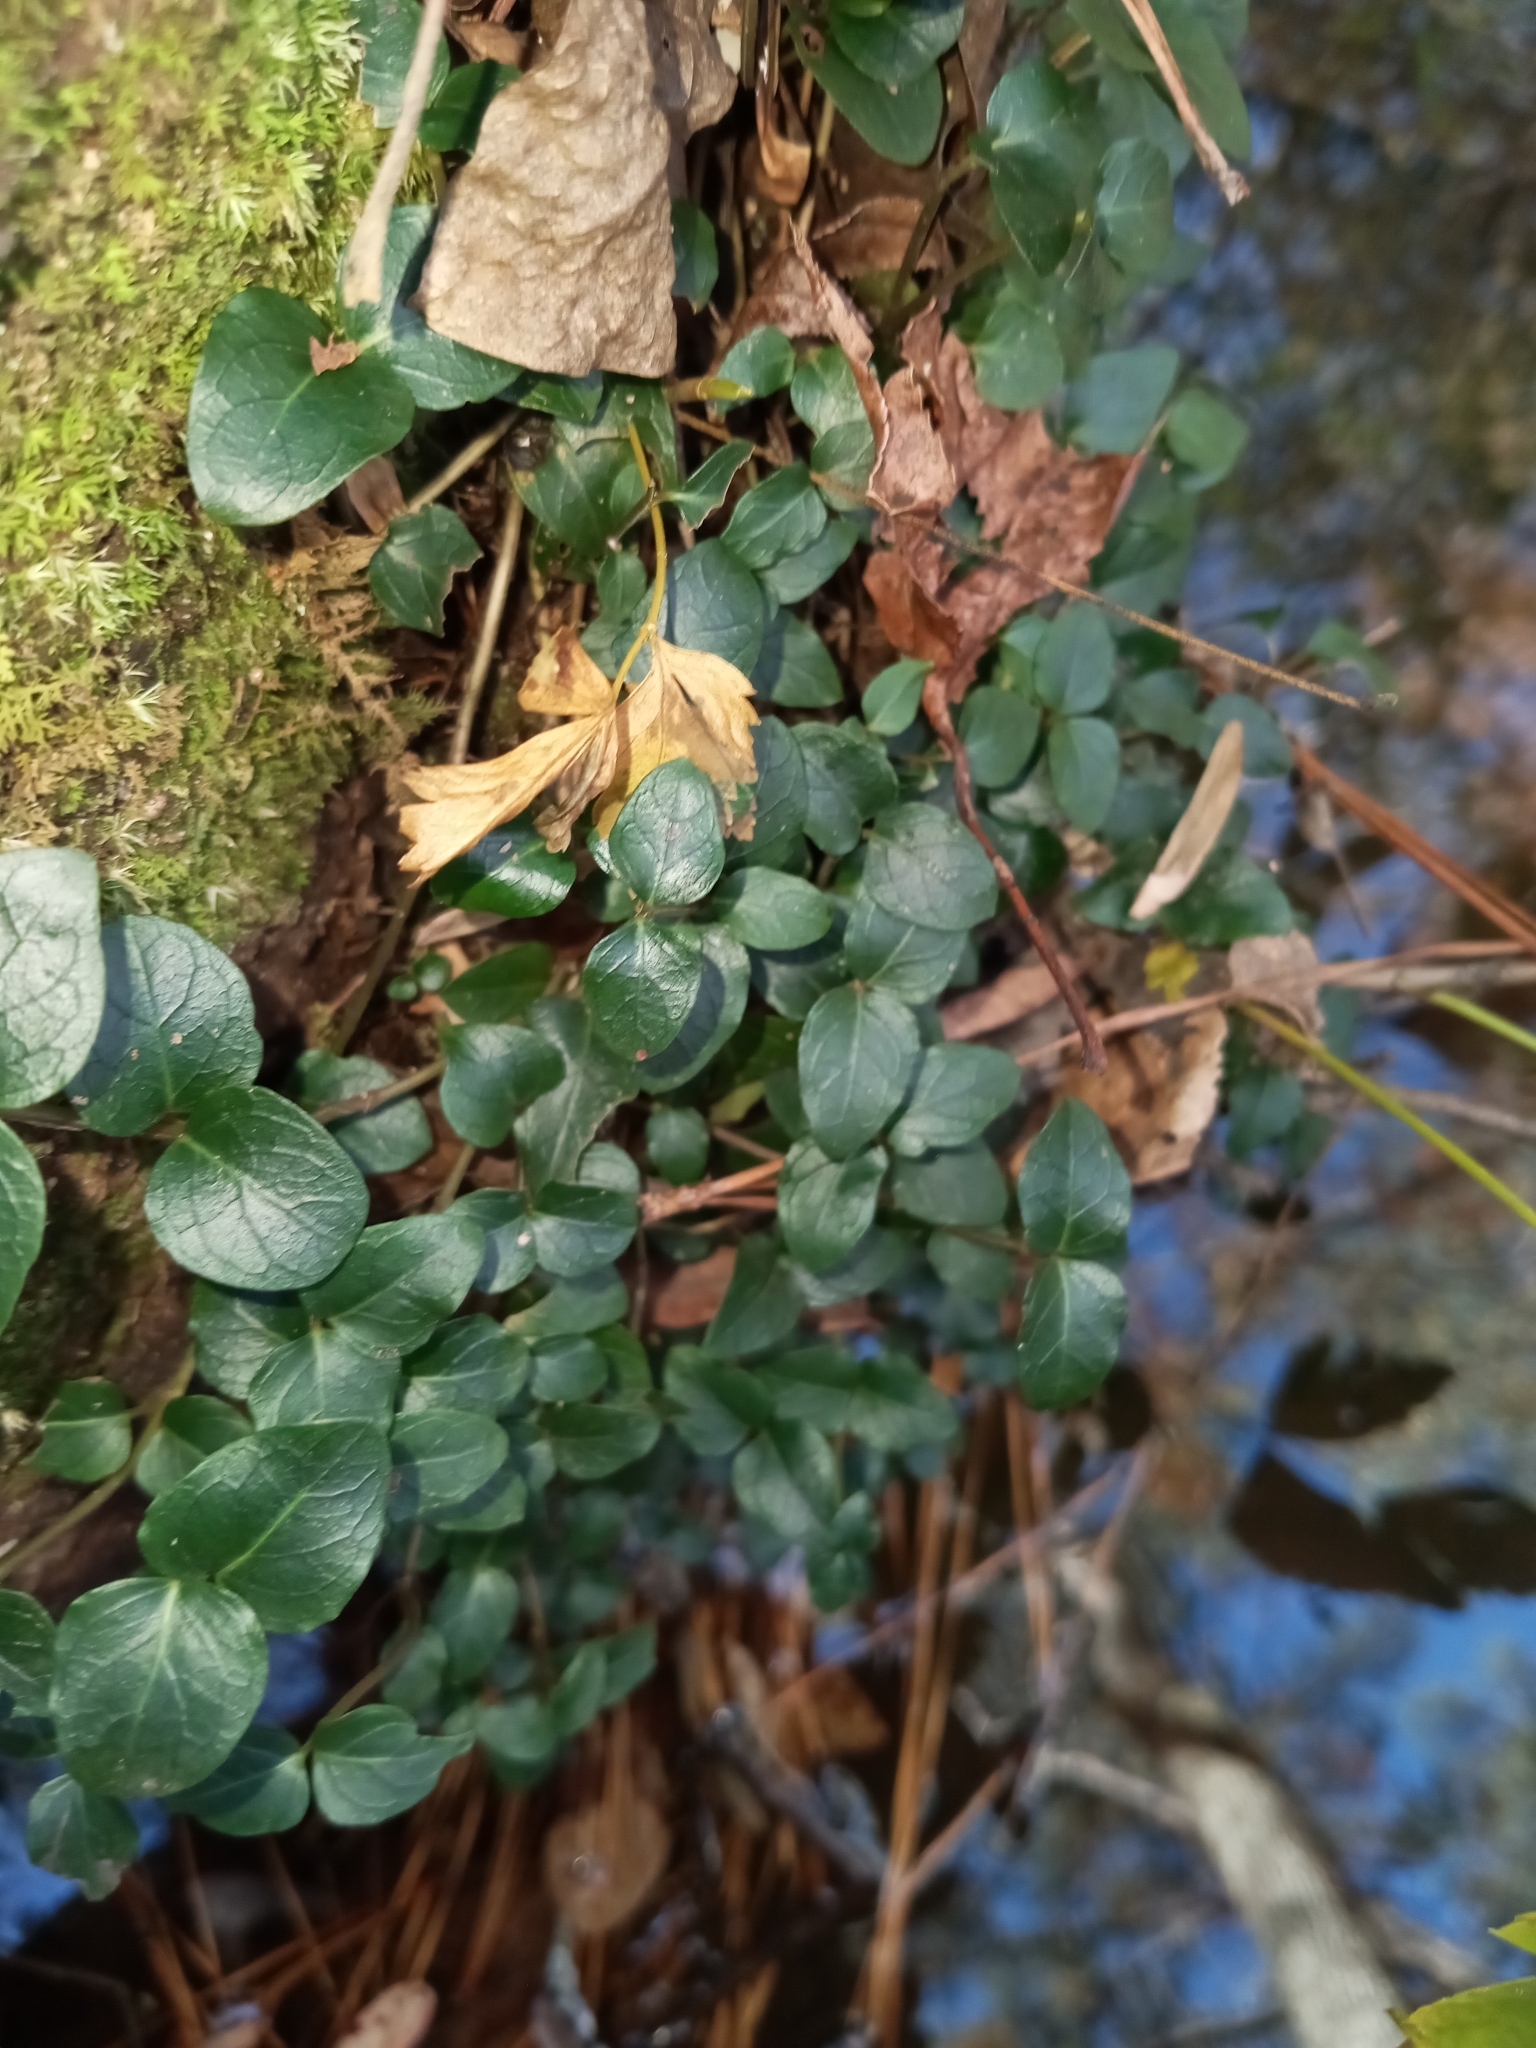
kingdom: Plantae
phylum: Tracheophyta
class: Magnoliopsida
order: Gentianales
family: Rubiaceae
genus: Mitchella
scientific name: Mitchella repens
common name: Partridge-berry
